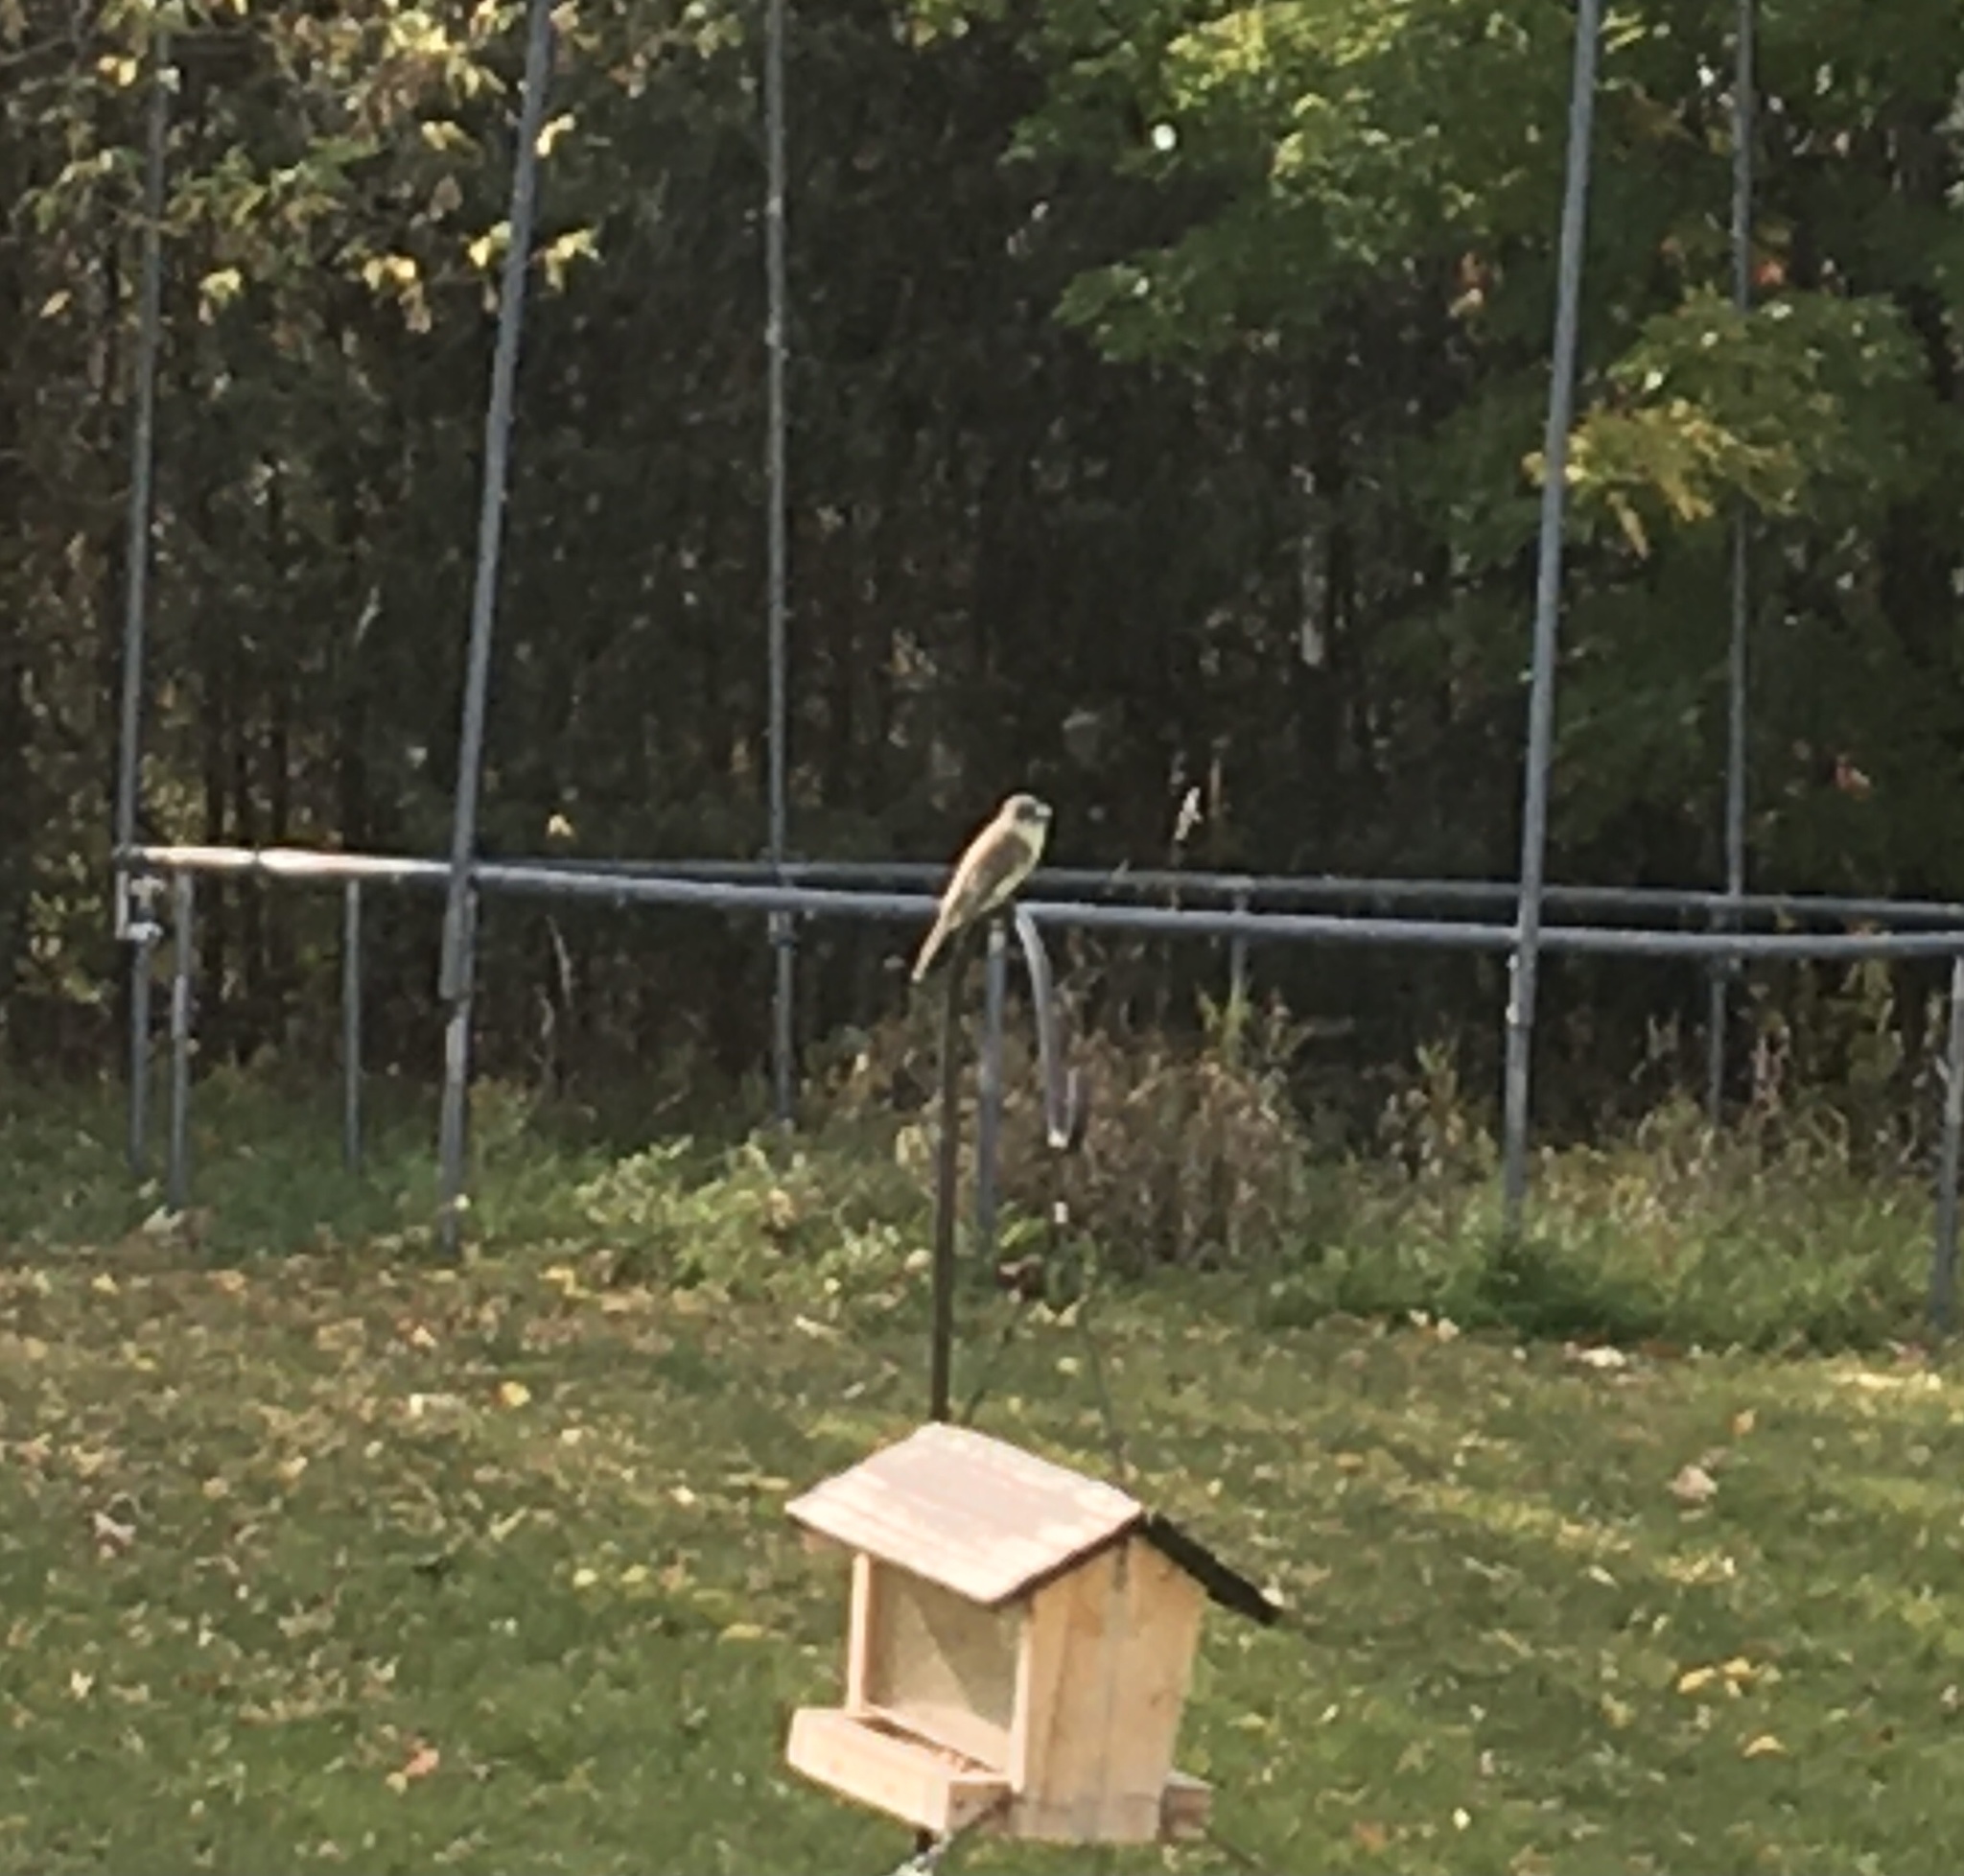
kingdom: Animalia
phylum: Chordata
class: Aves
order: Passeriformes
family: Tyrannidae
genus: Sayornis
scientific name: Sayornis phoebe
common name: Eastern phoebe
